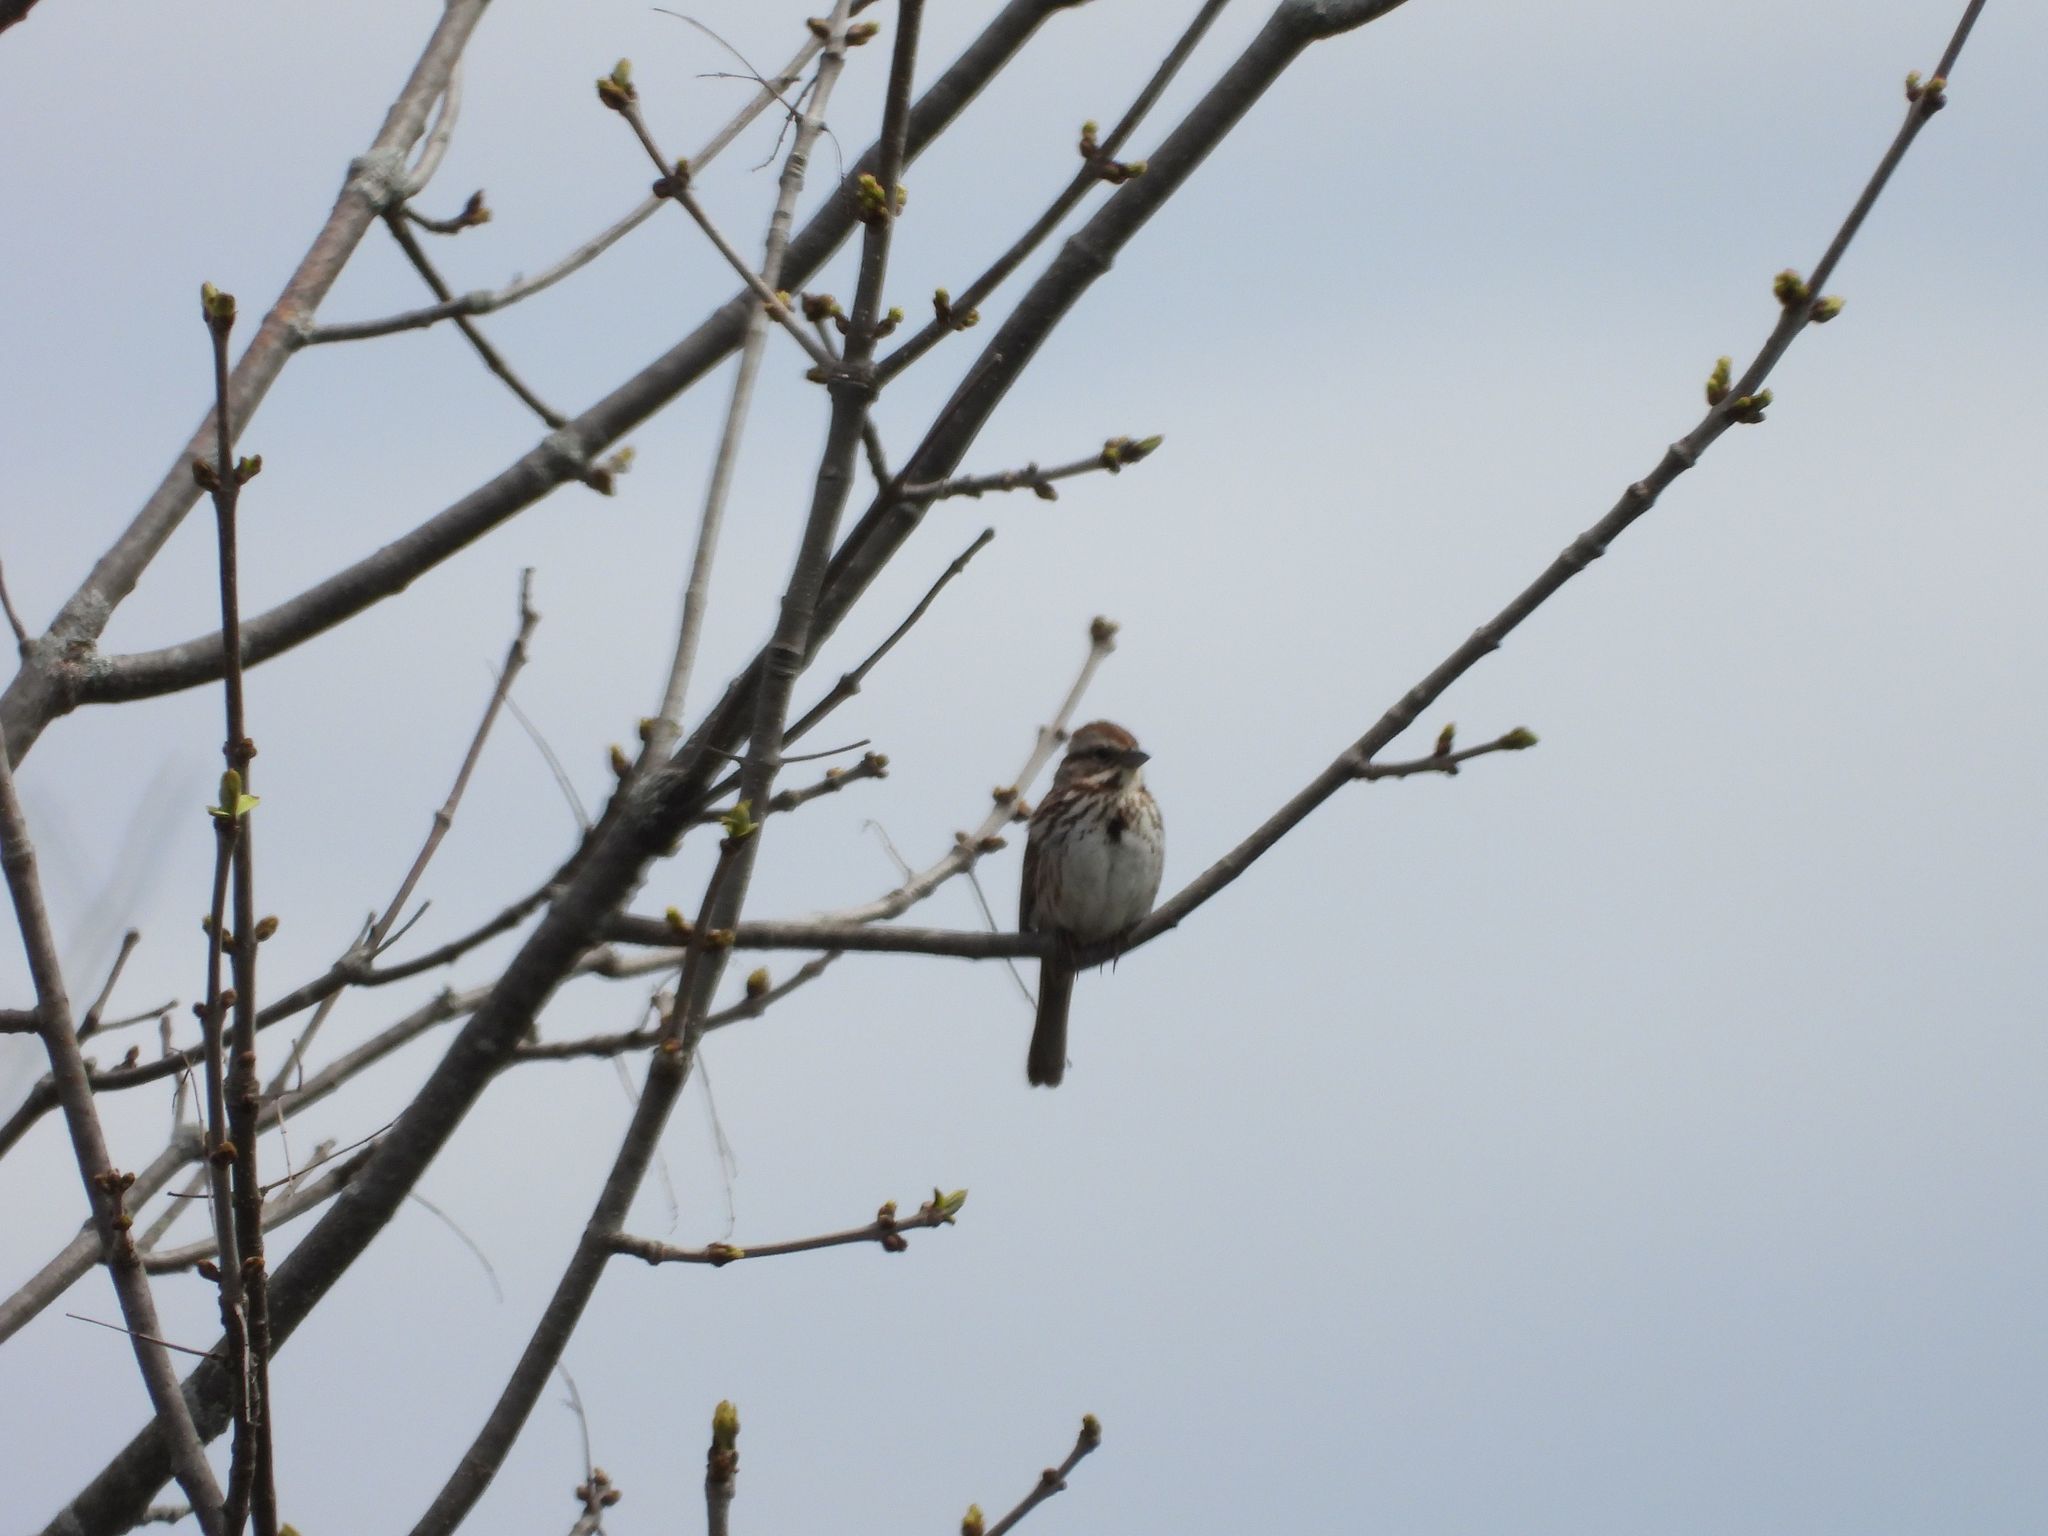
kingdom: Animalia
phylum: Chordata
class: Aves
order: Passeriformes
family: Passerellidae
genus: Melospiza
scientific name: Melospiza melodia
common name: Song sparrow
